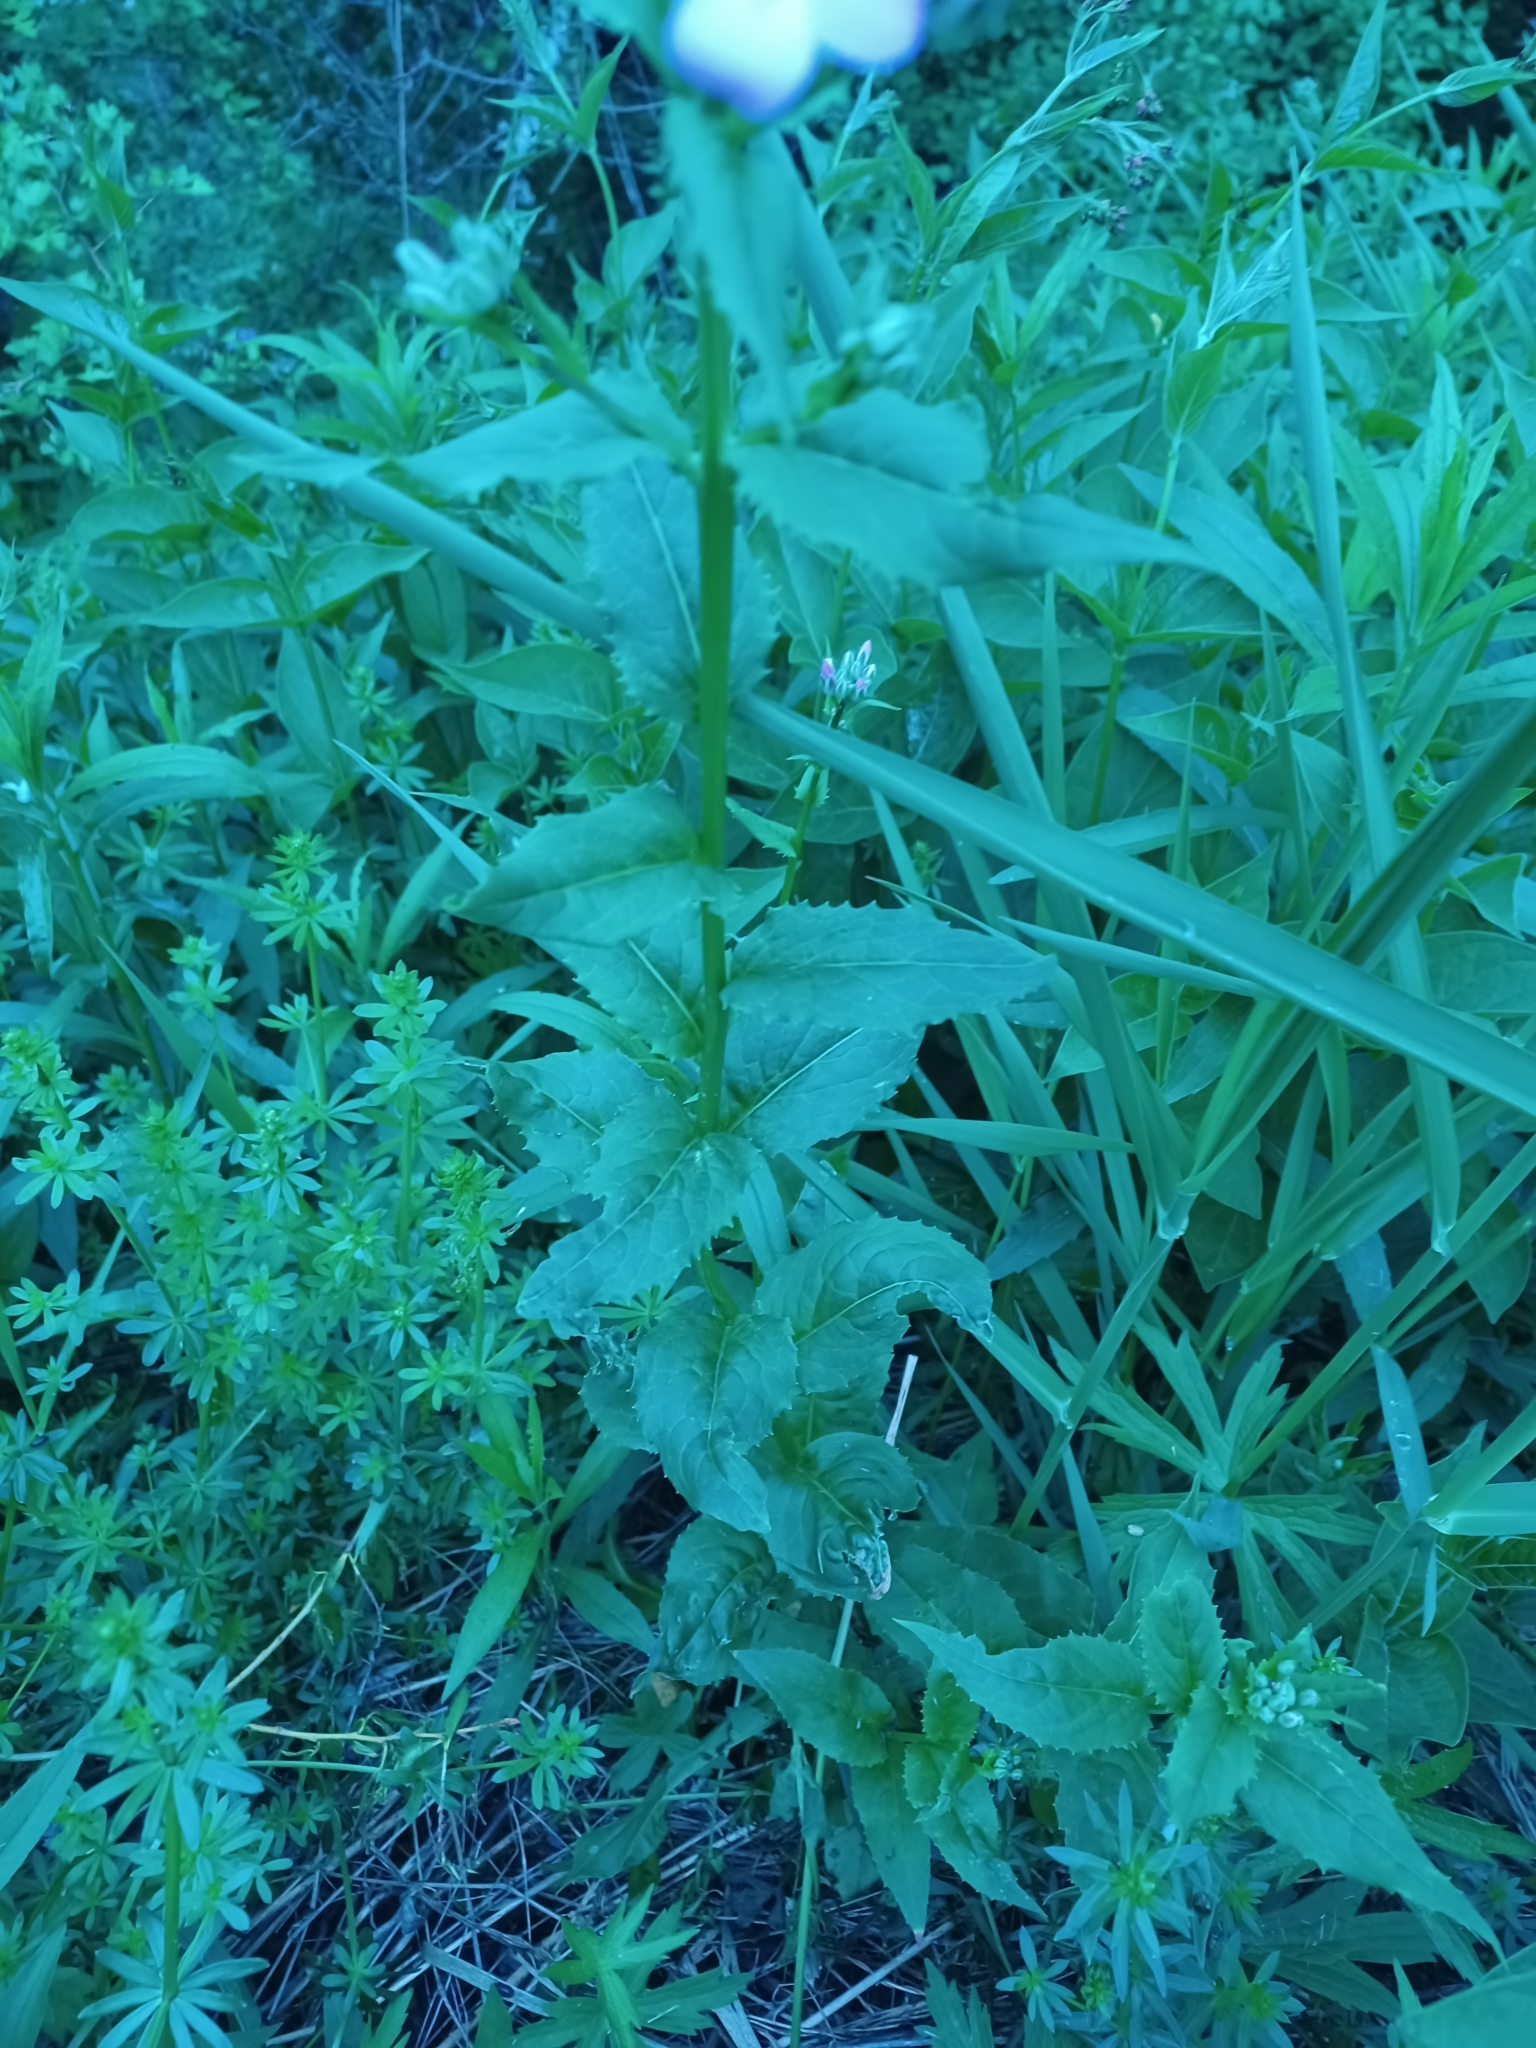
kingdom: Plantae
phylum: Tracheophyta
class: Magnoliopsida
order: Brassicales
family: Brassicaceae
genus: Hesperis
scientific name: Hesperis matronalis
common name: Dame's-violet
